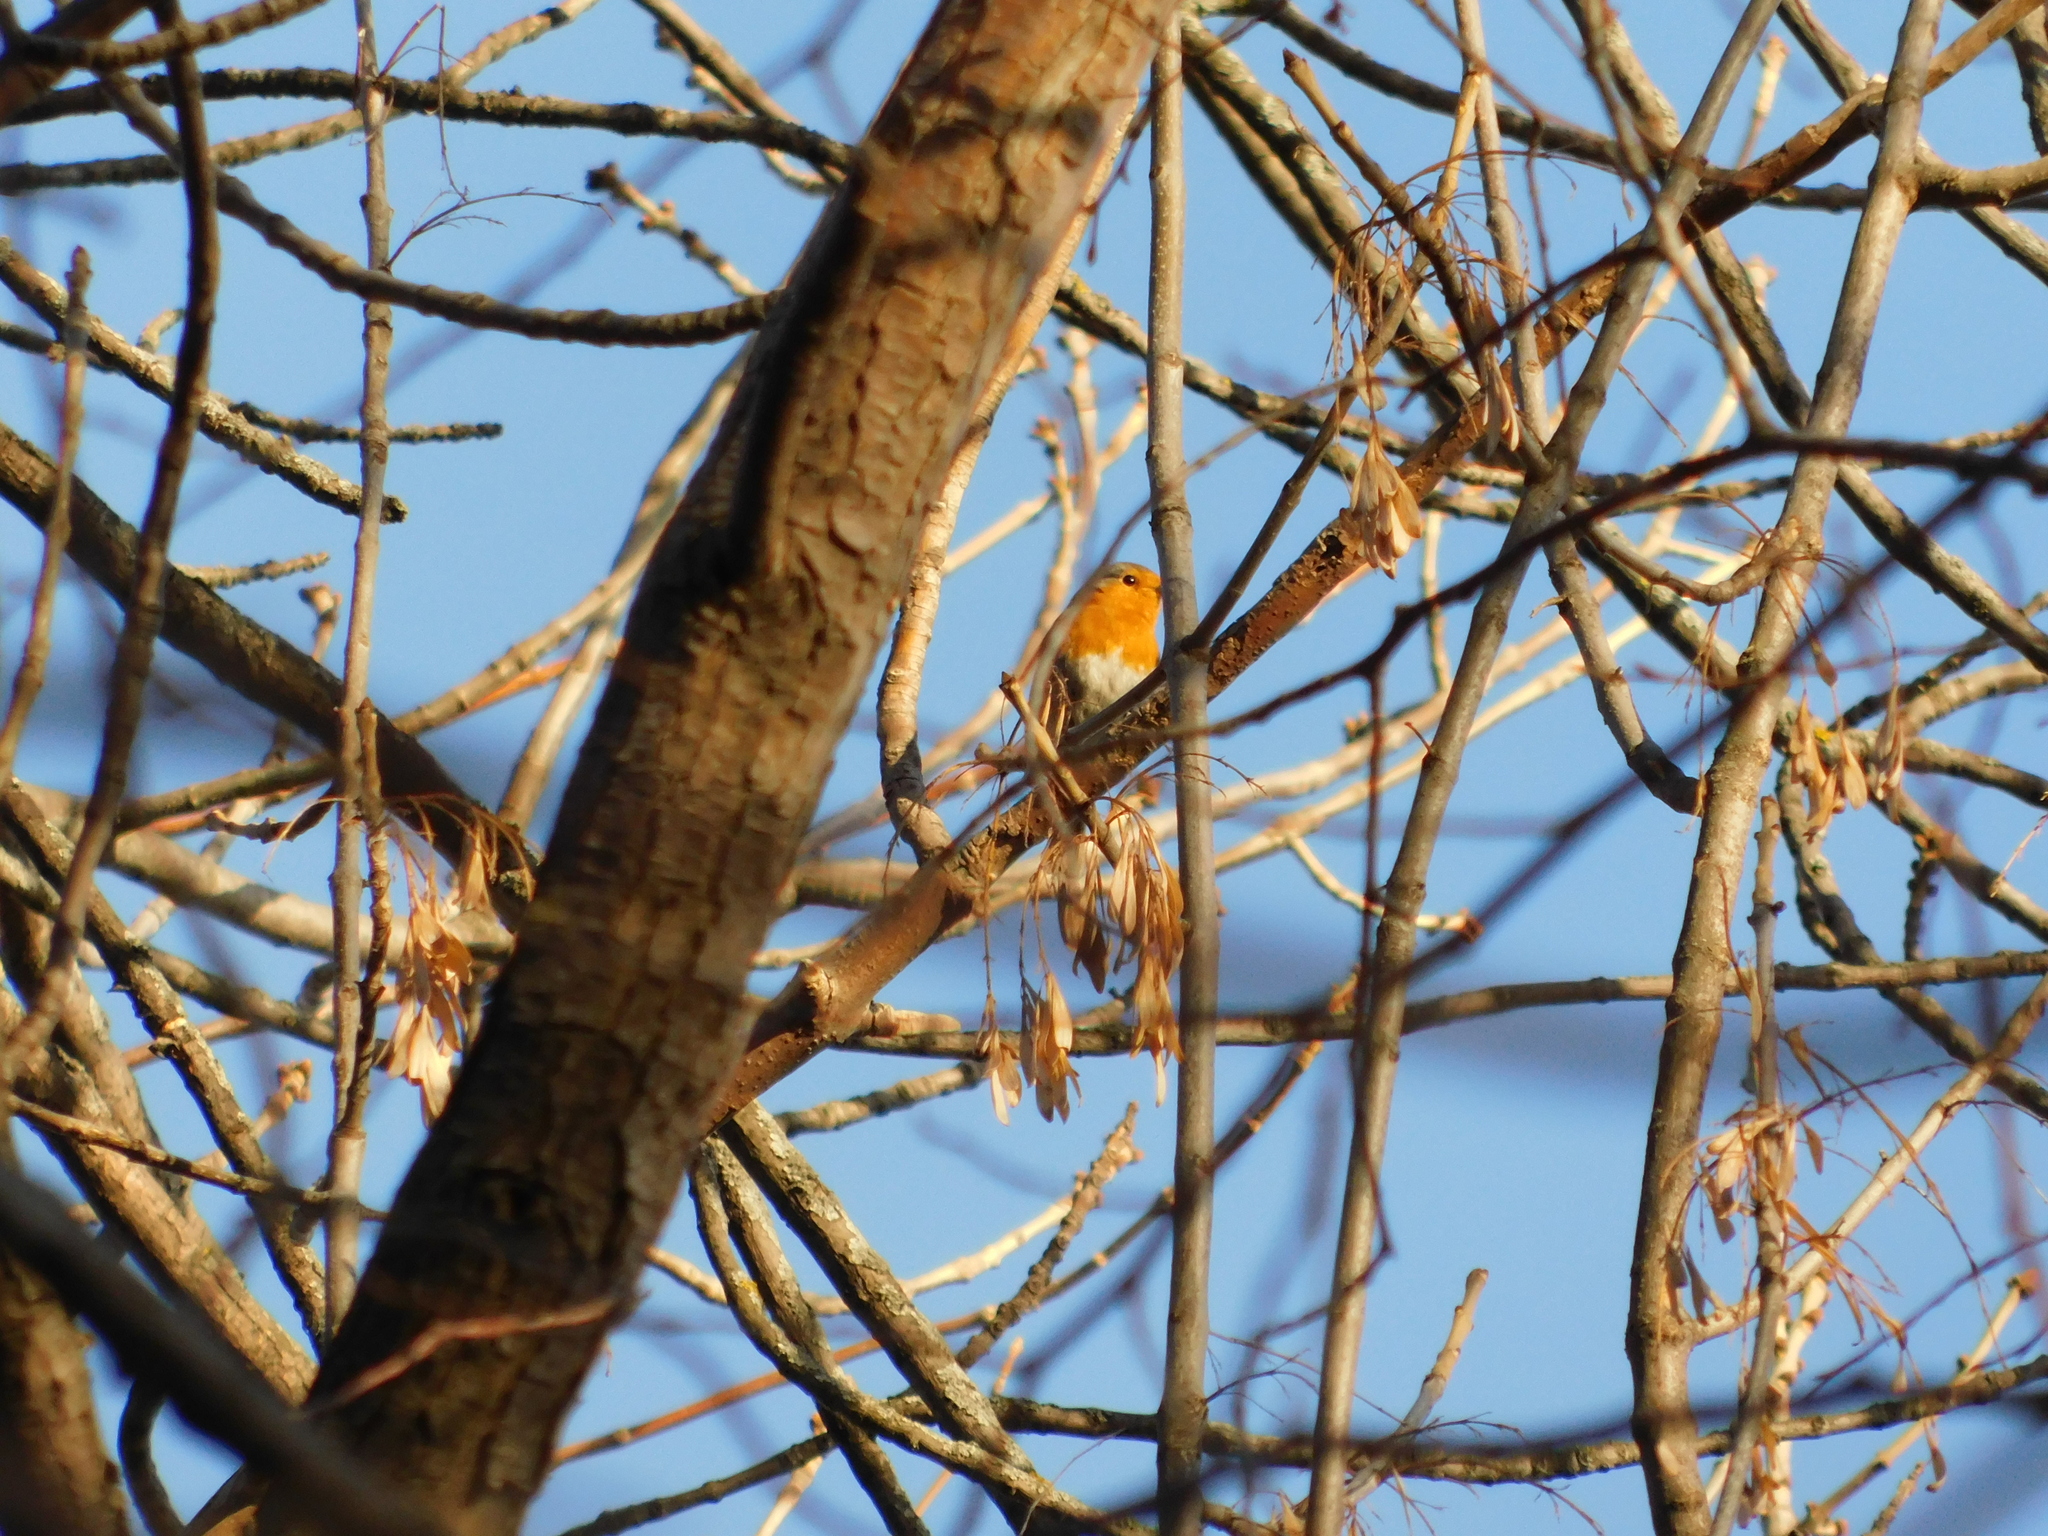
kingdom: Animalia
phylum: Chordata
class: Aves
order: Passeriformes
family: Muscicapidae
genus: Erithacus
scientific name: Erithacus rubecula
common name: European robin
